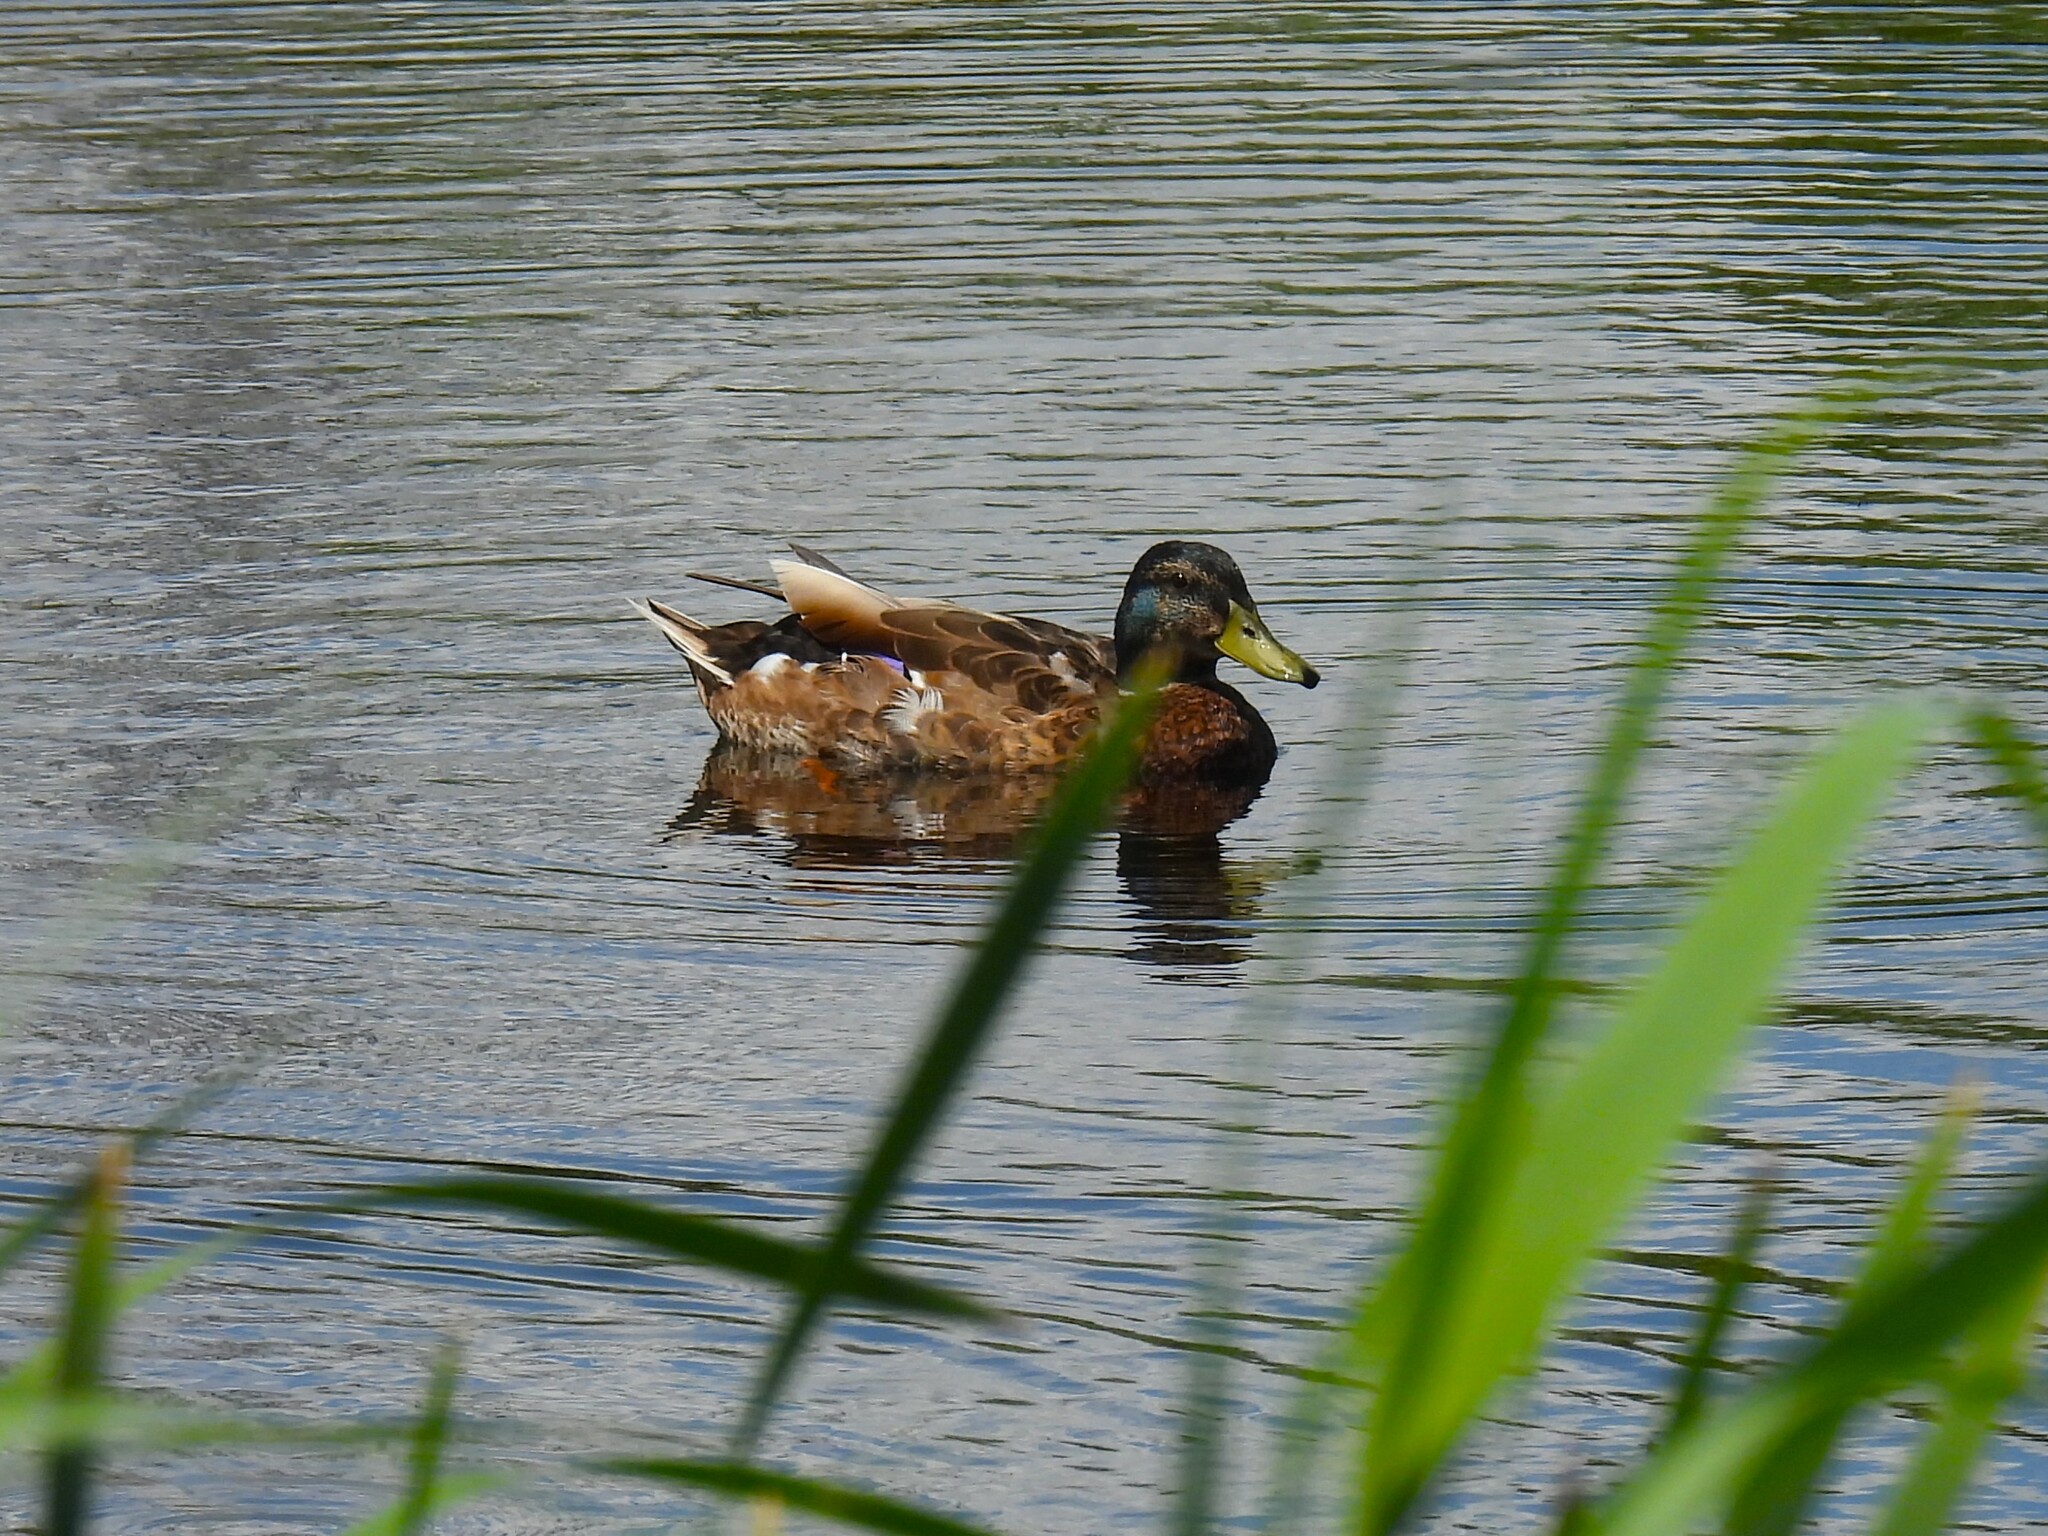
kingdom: Animalia
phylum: Chordata
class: Aves
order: Anseriformes
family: Anatidae
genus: Anas
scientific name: Anas platyrhynchos
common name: Mallard
